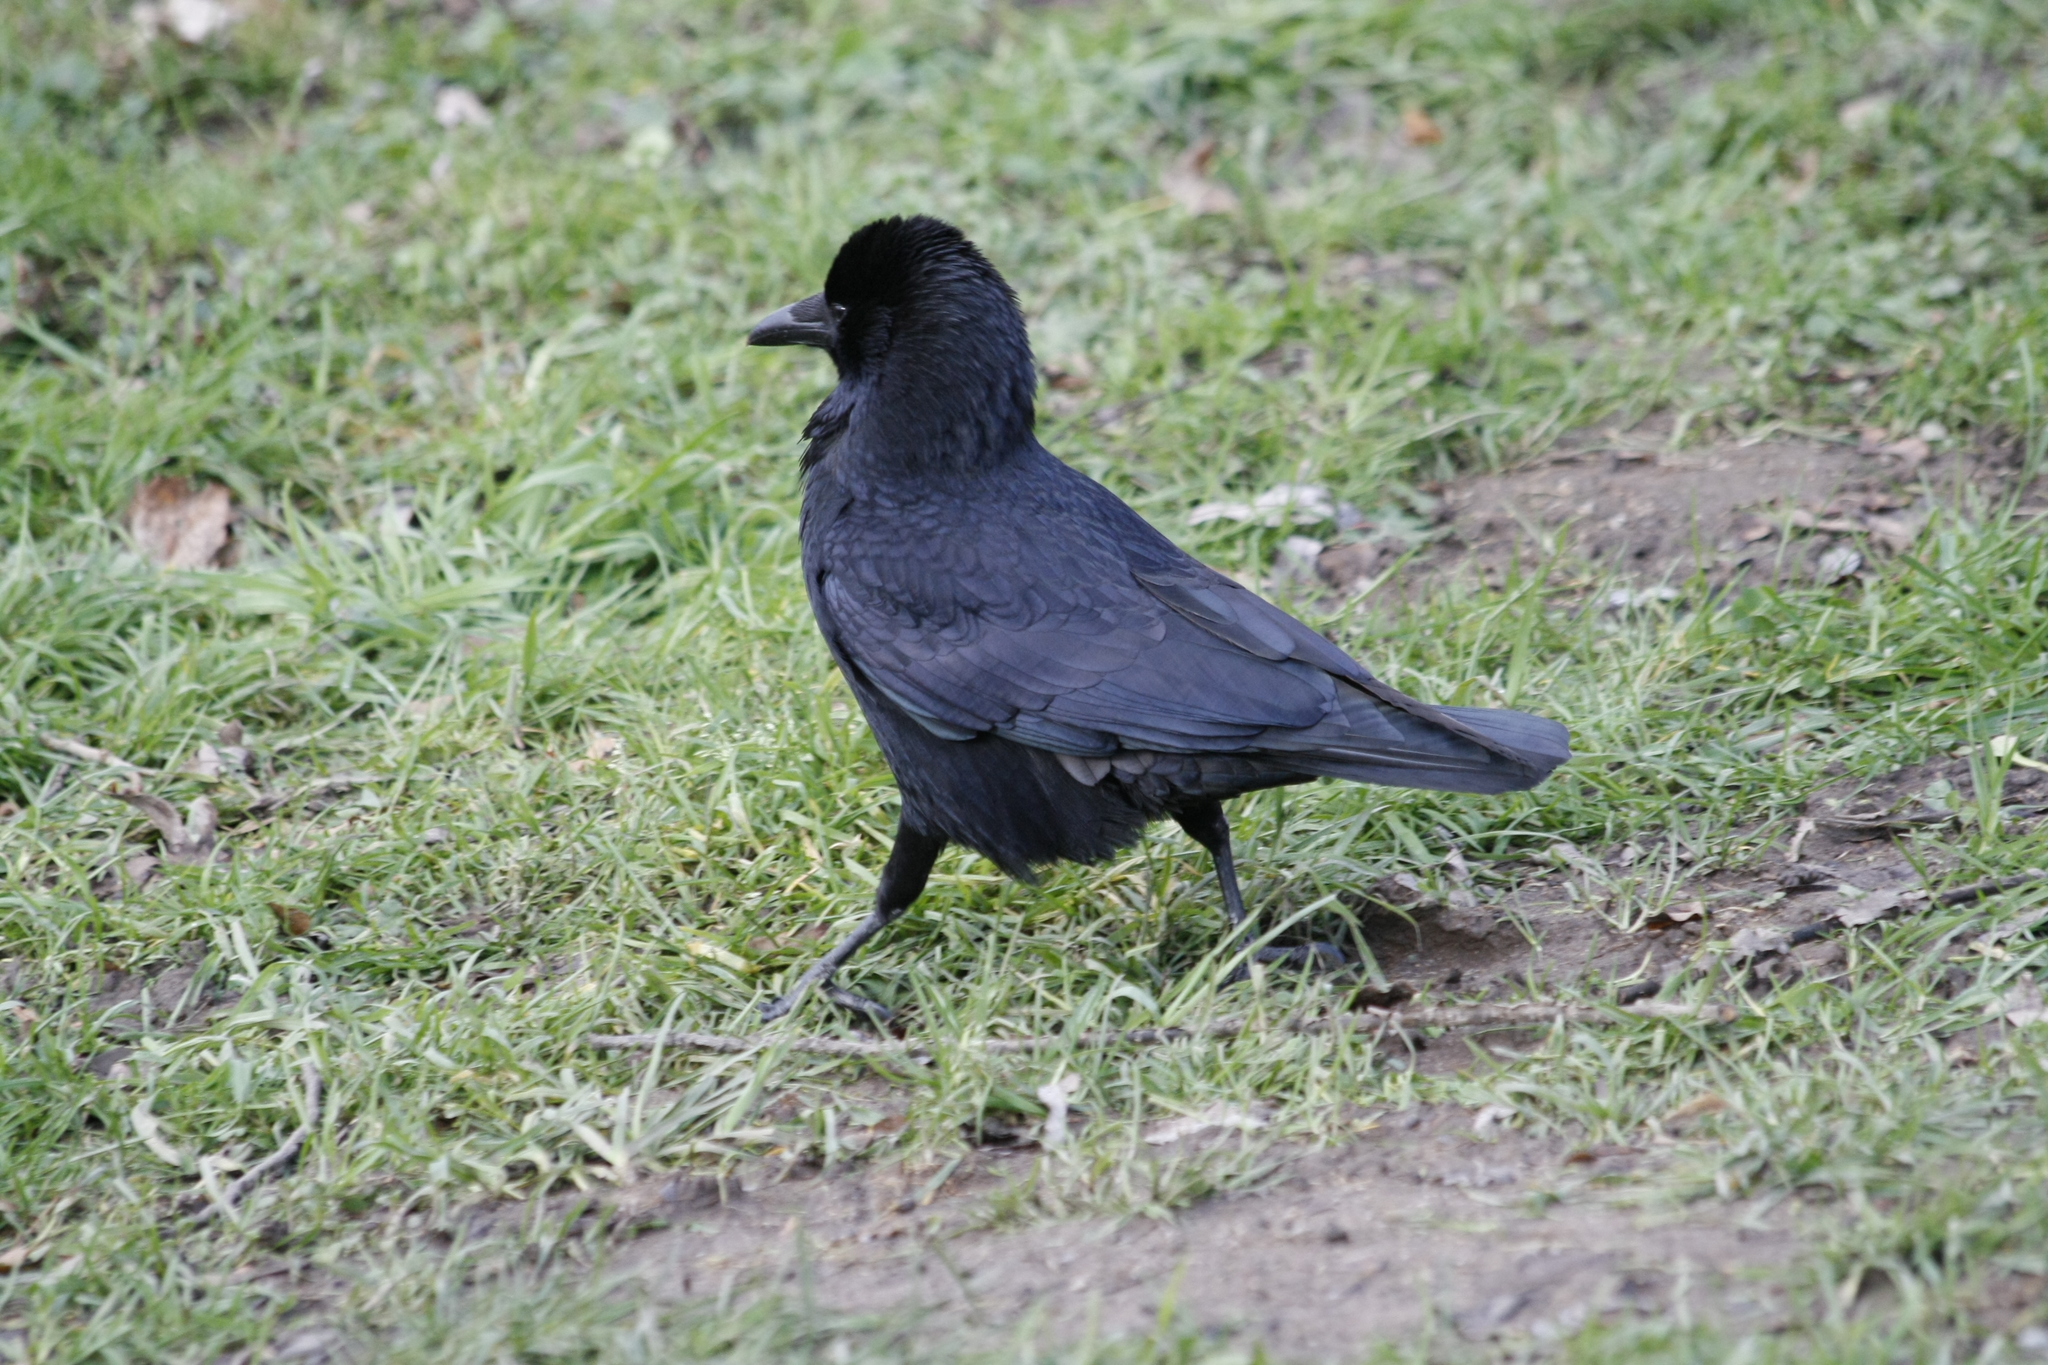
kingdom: Animalia
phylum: Chordata
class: Aves
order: Passeriformes
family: Corvidae
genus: Corvus
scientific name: Corvus corone
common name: Carrion crow
